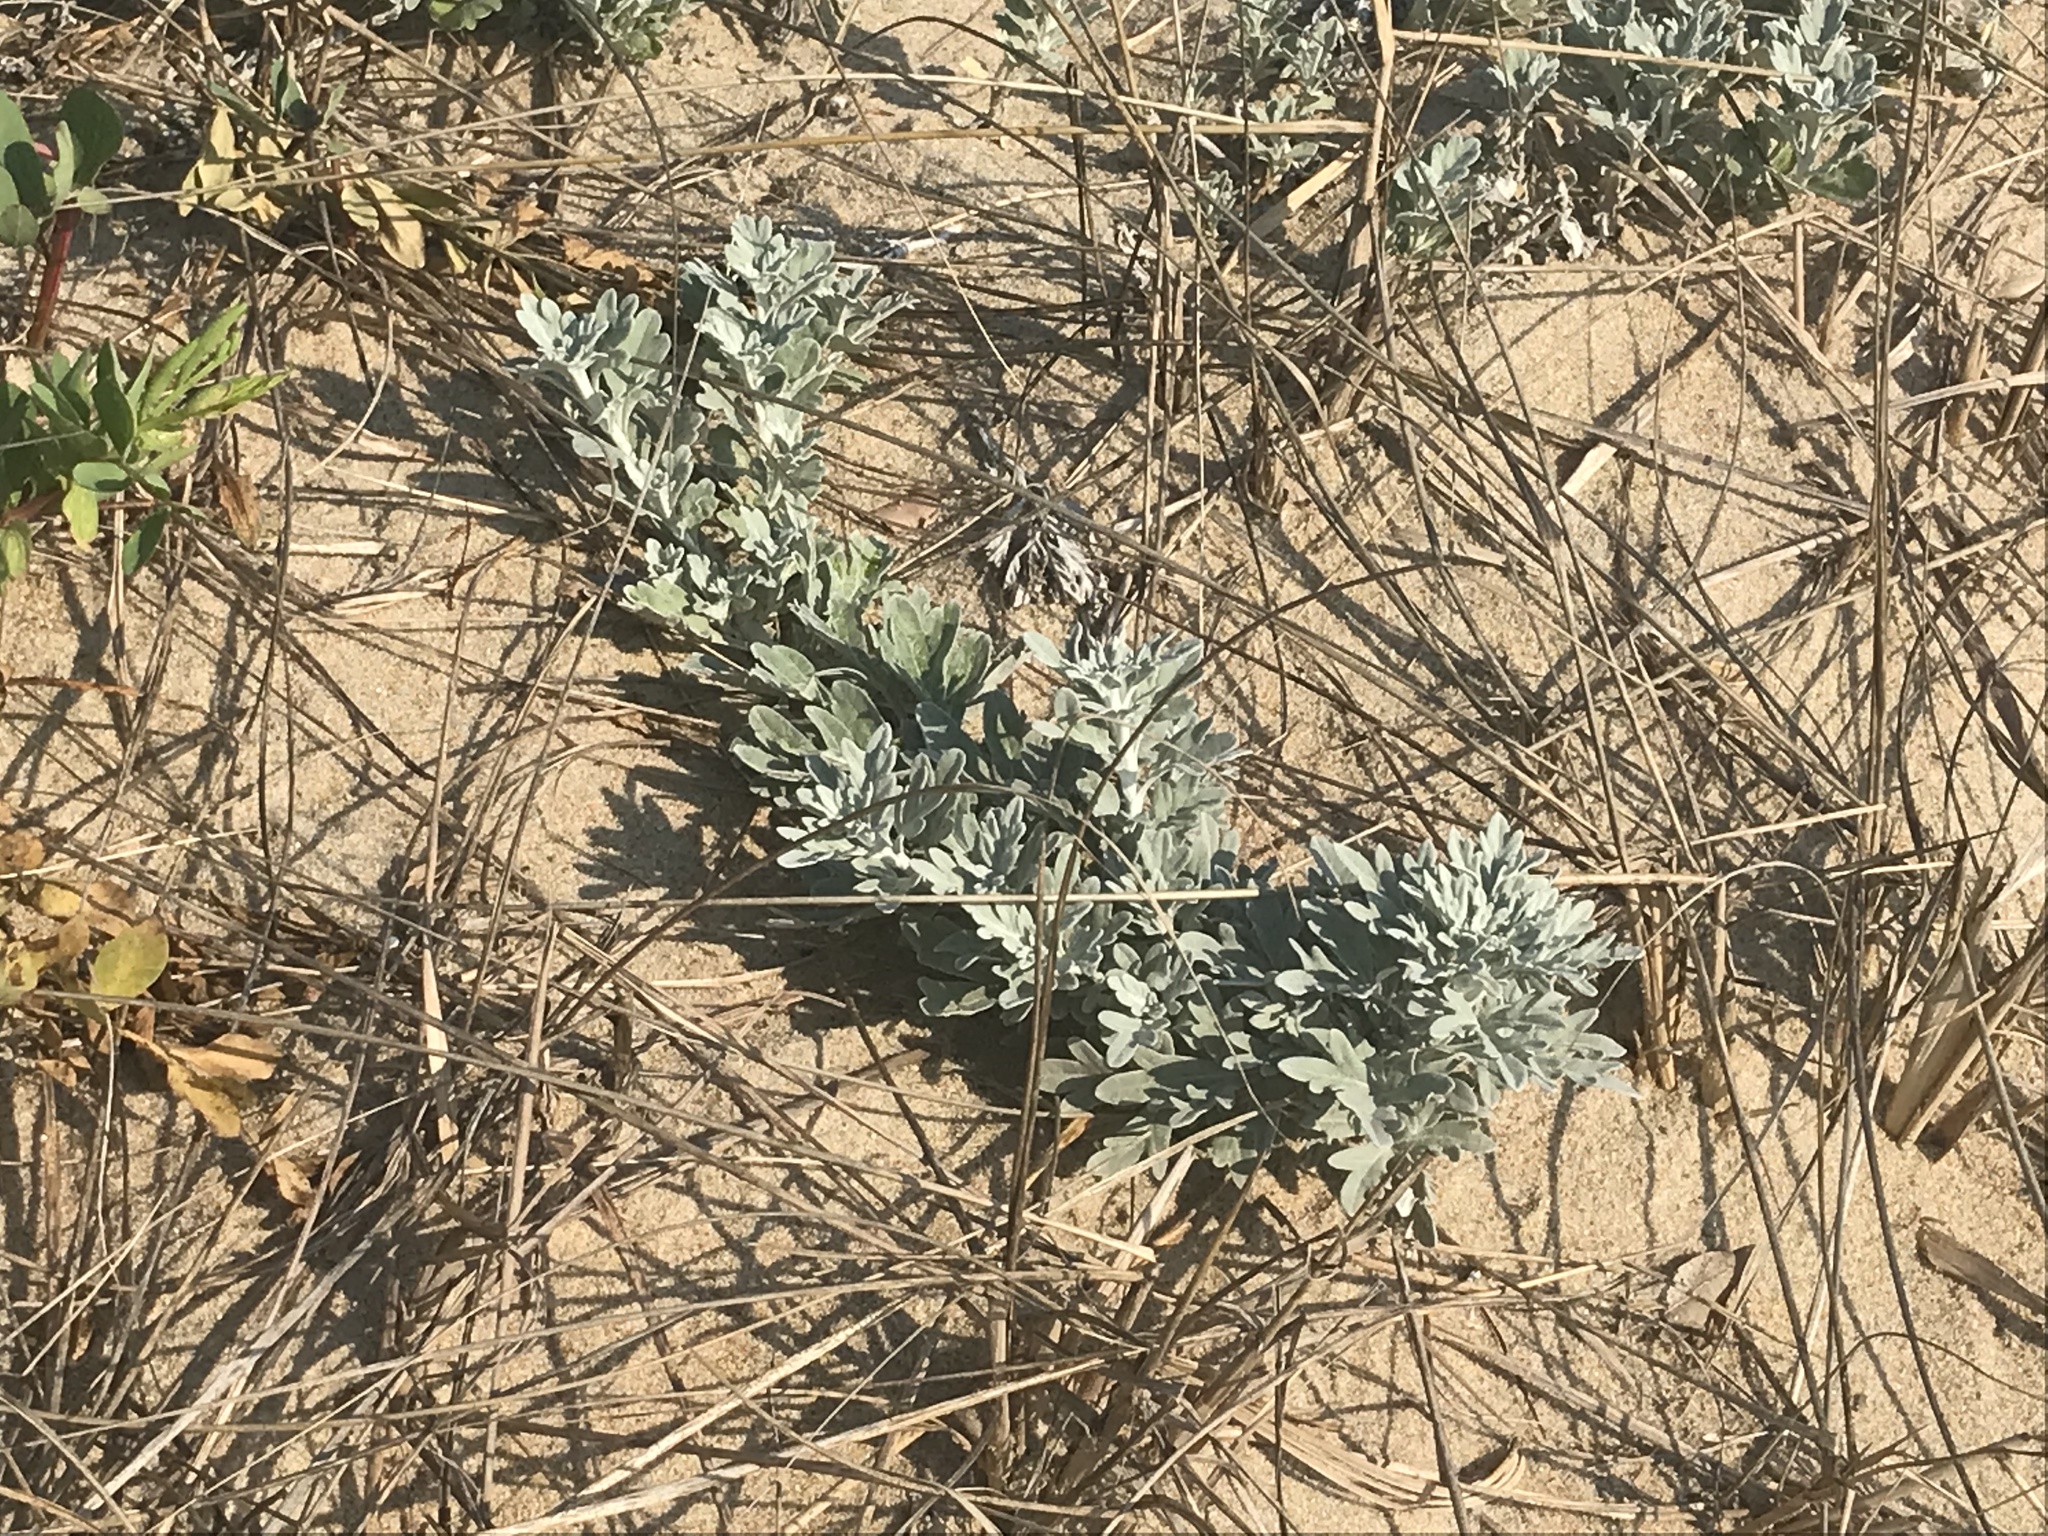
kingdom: Plantae
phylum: Tracheophyta
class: Magnoliopsida
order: Asterales
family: Asteraceae
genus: Artemisia
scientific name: Artemisia stelleriana
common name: Beach wormwood
